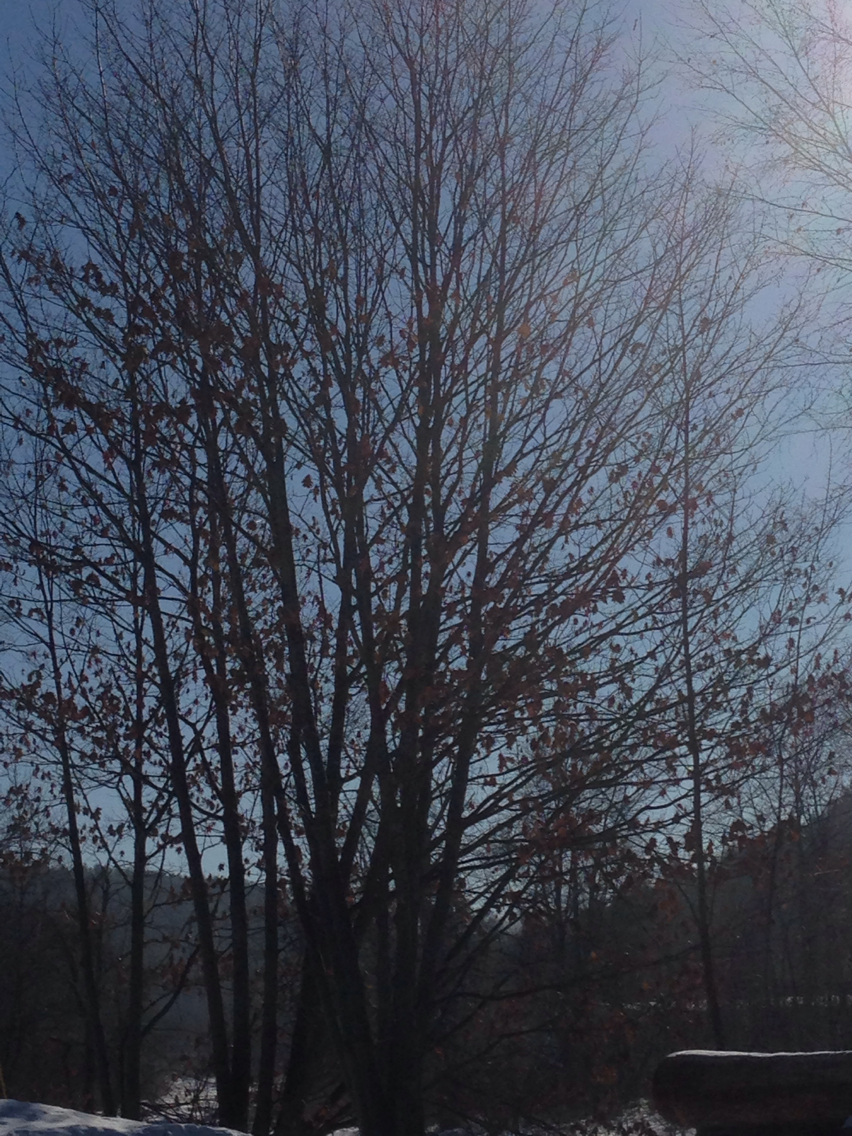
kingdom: Plantae
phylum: Tracheophyta
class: Magnoliopsida
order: Fagales
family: Fagaceae
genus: Quercus
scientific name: Quercus rubra
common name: Red oak
